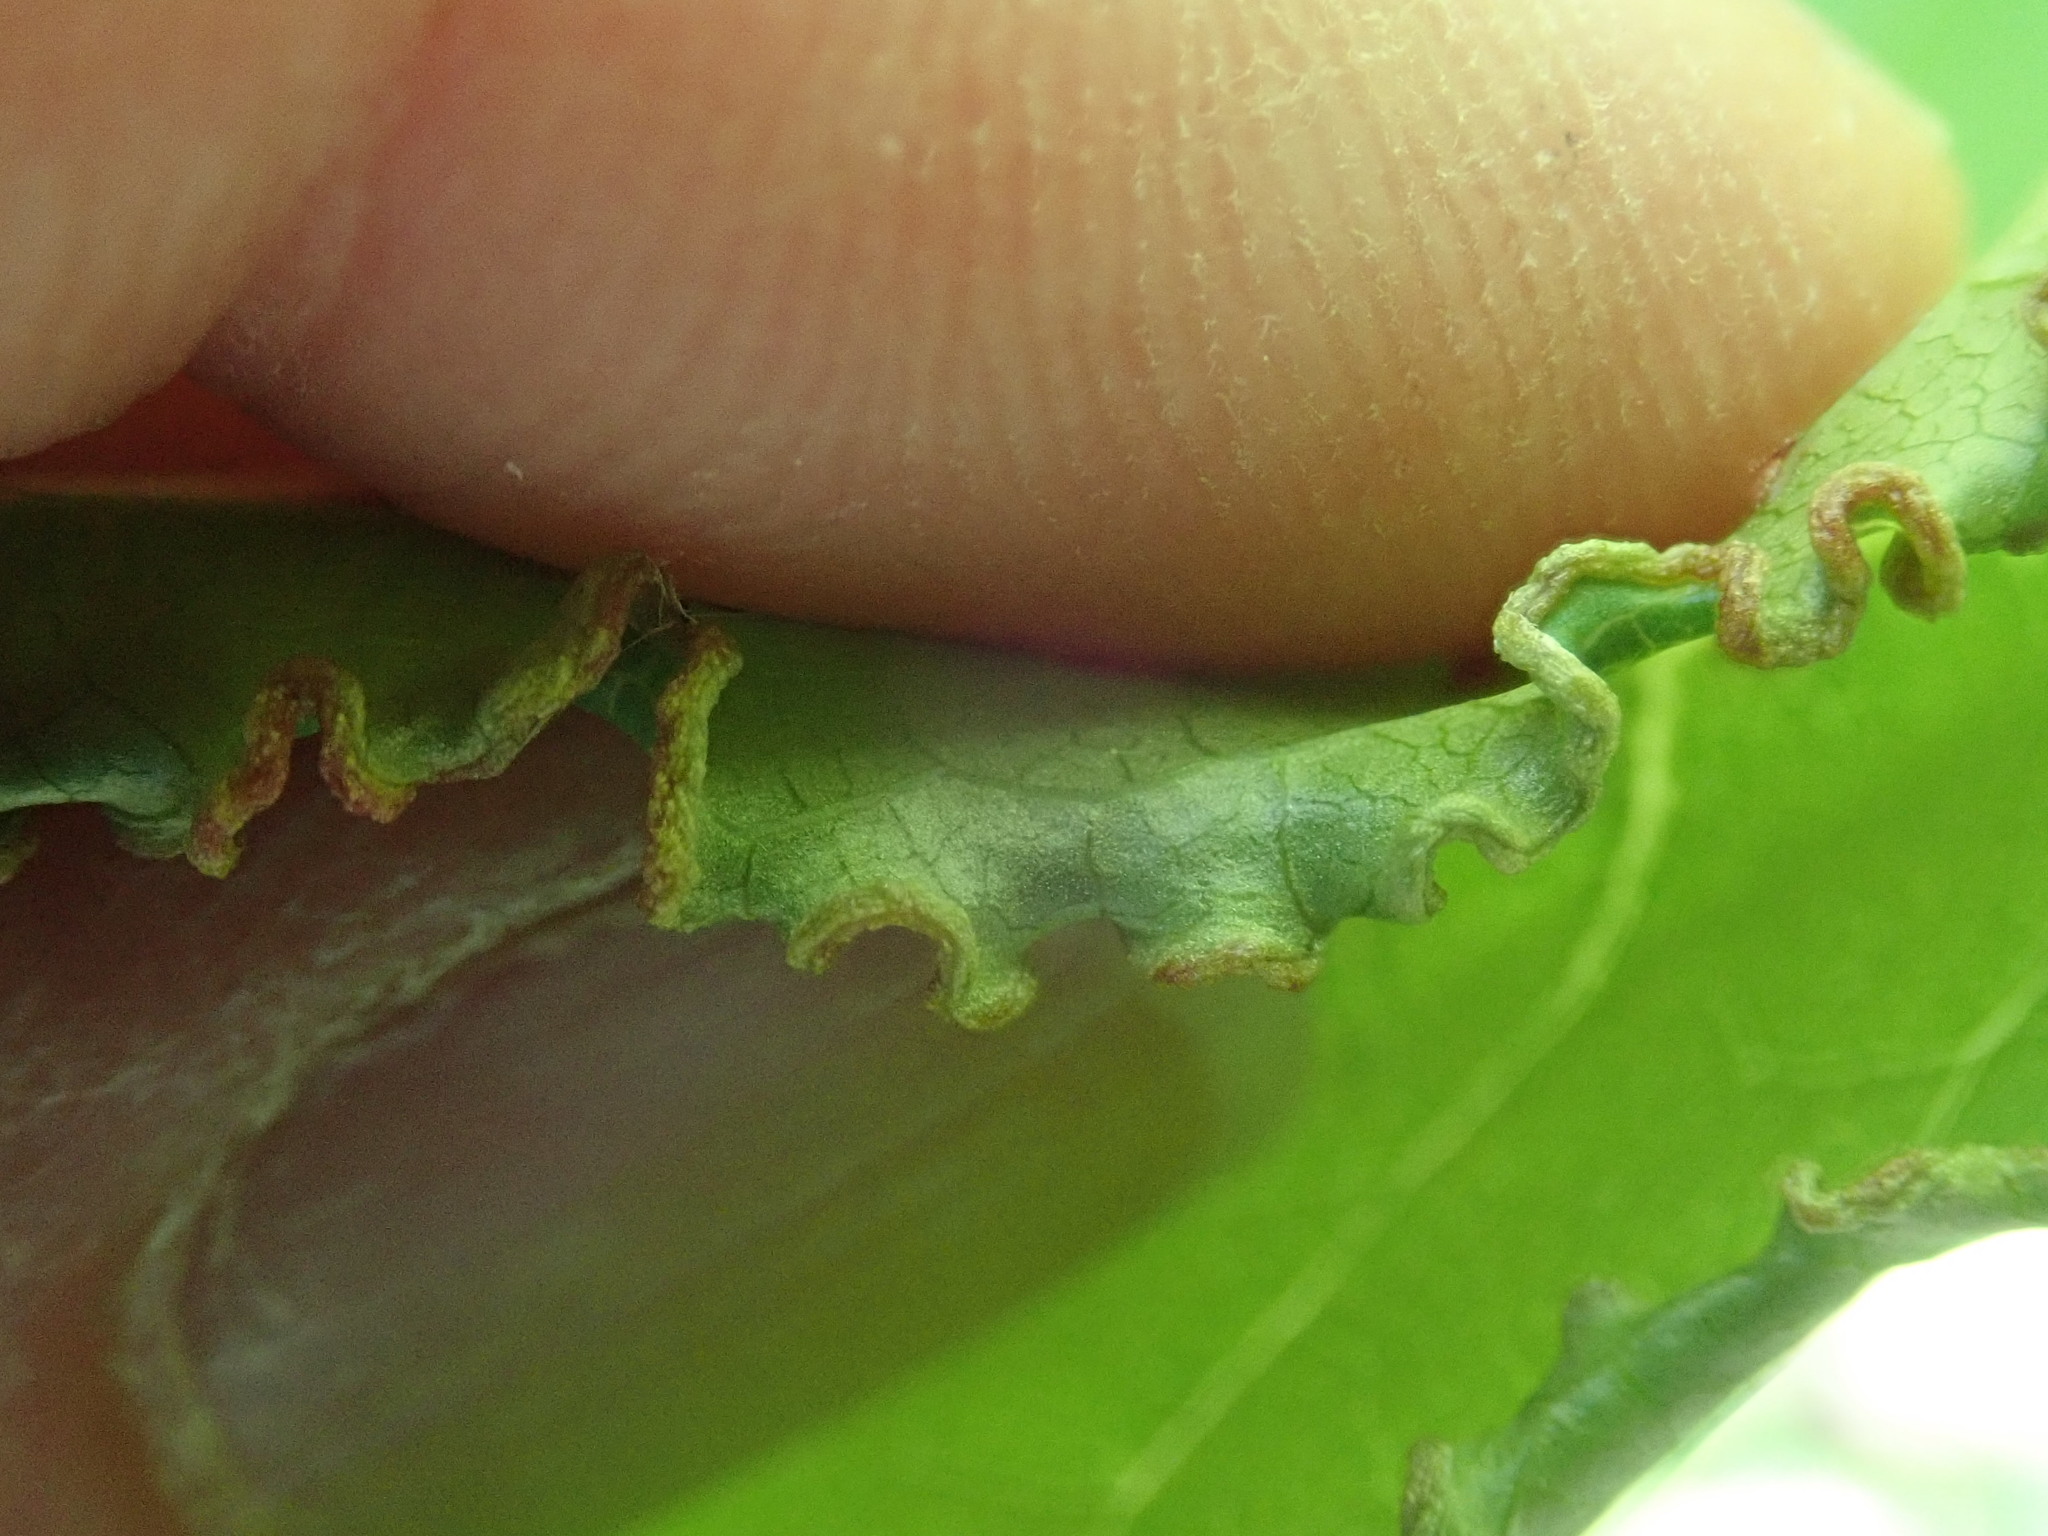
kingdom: Animalia
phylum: Arthropoda
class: Arachnida
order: Trombidiformes
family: Eriophyidae
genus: Aceria
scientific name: Aceria
